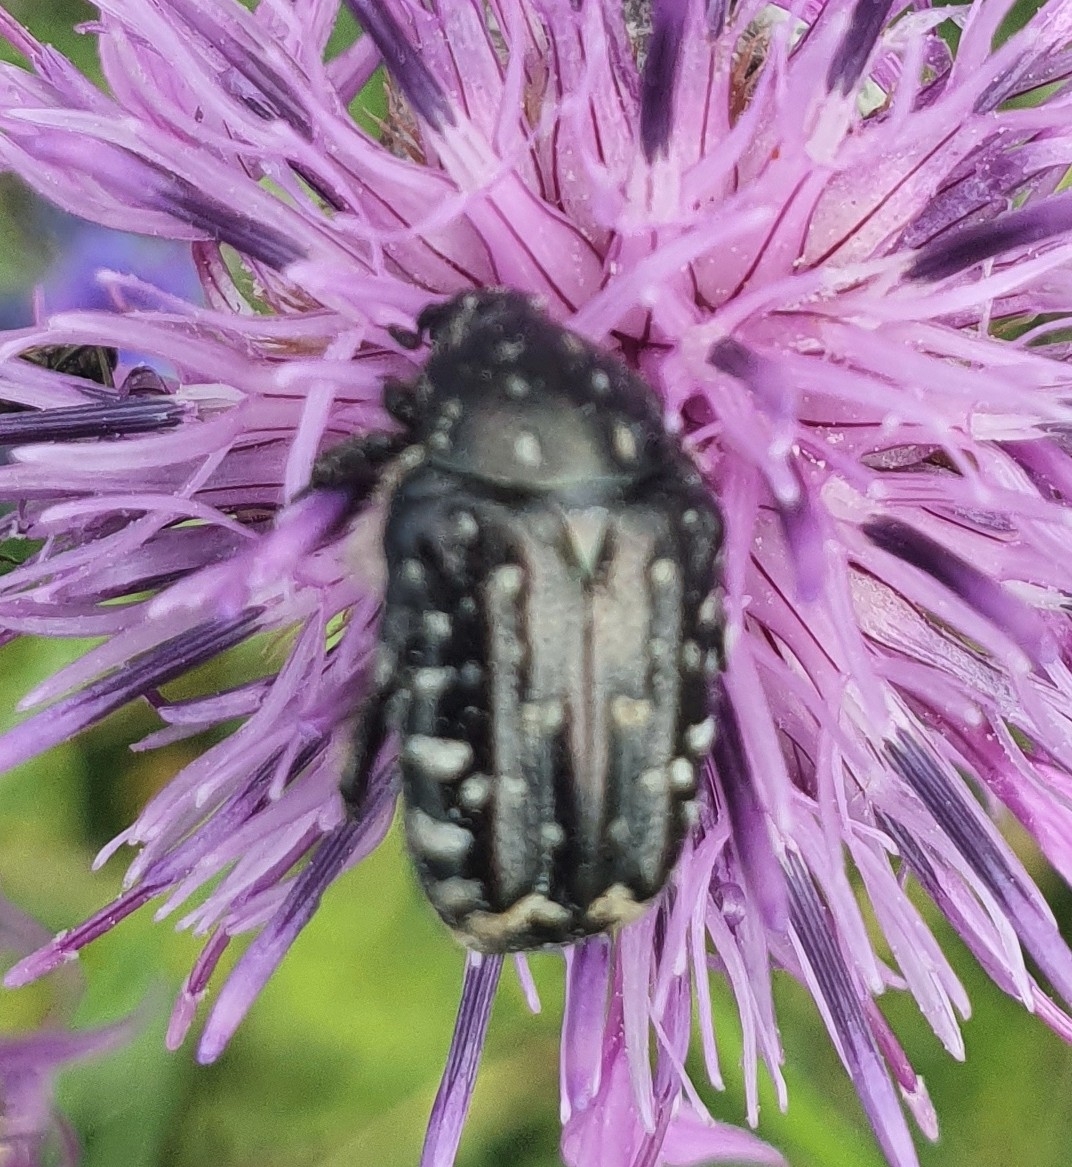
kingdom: Animalia
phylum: Arthropoda
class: Insecta
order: Coleoptera
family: Scarabaeidae
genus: Oxythyrea
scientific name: Oxythyrea funesta
